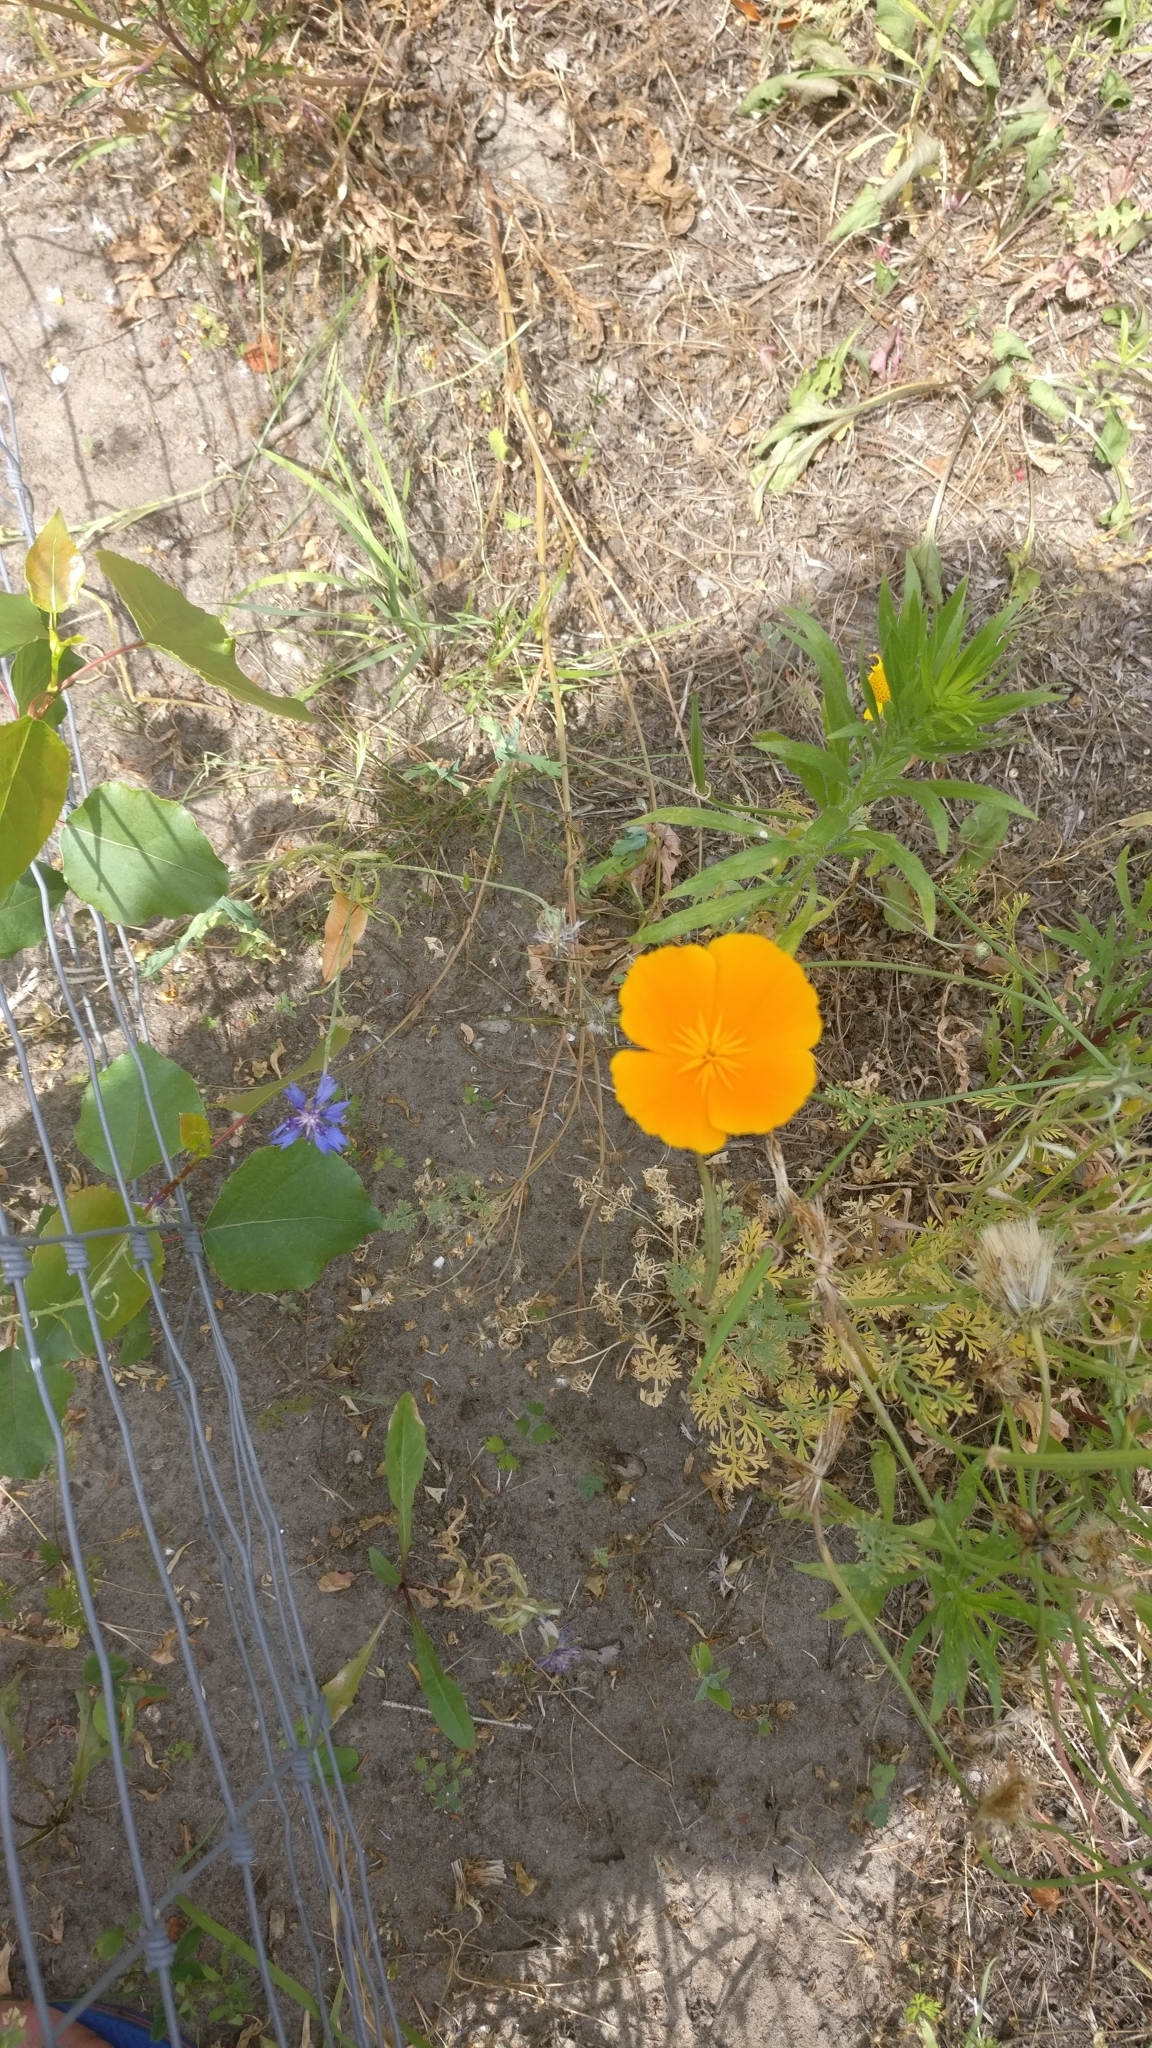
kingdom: Plantae
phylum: Tracheophyta
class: Magnoliopsida
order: Ranunculales
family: Papaveraceae
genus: Eschscholzia
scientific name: Eschscholzia californica
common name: California poppy
